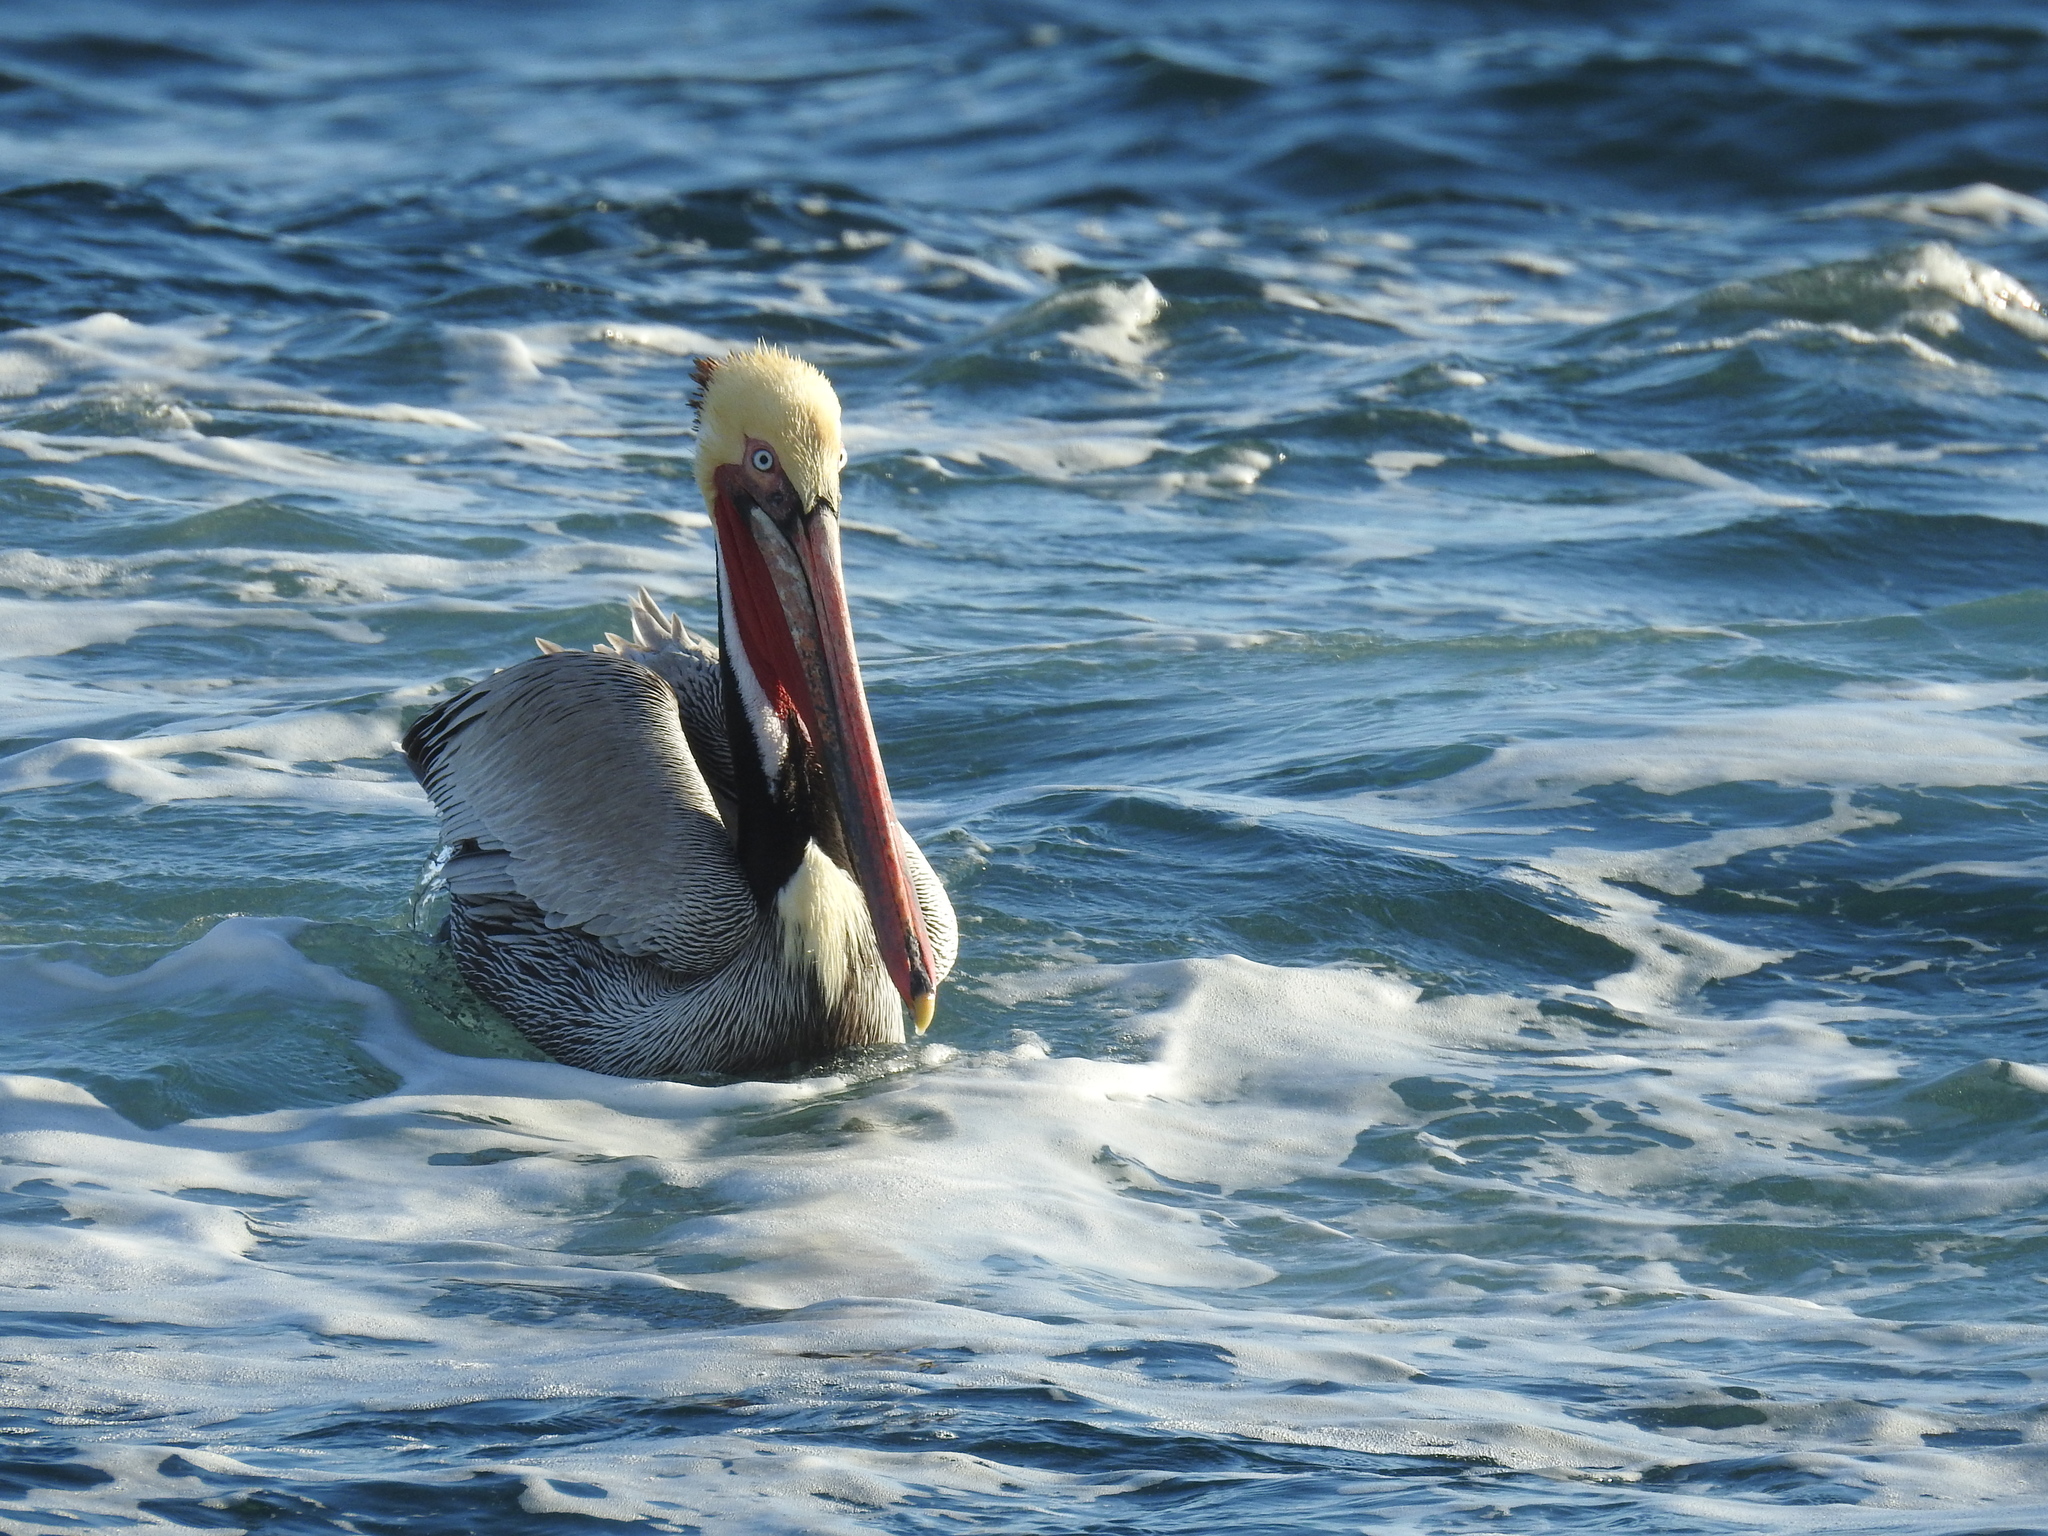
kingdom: Animalia
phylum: Chordata
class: Aves
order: Pelecaniformes
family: Pelecanidae
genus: Pelecanus
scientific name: Pelecanus occidentalis
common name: Brown pelican
